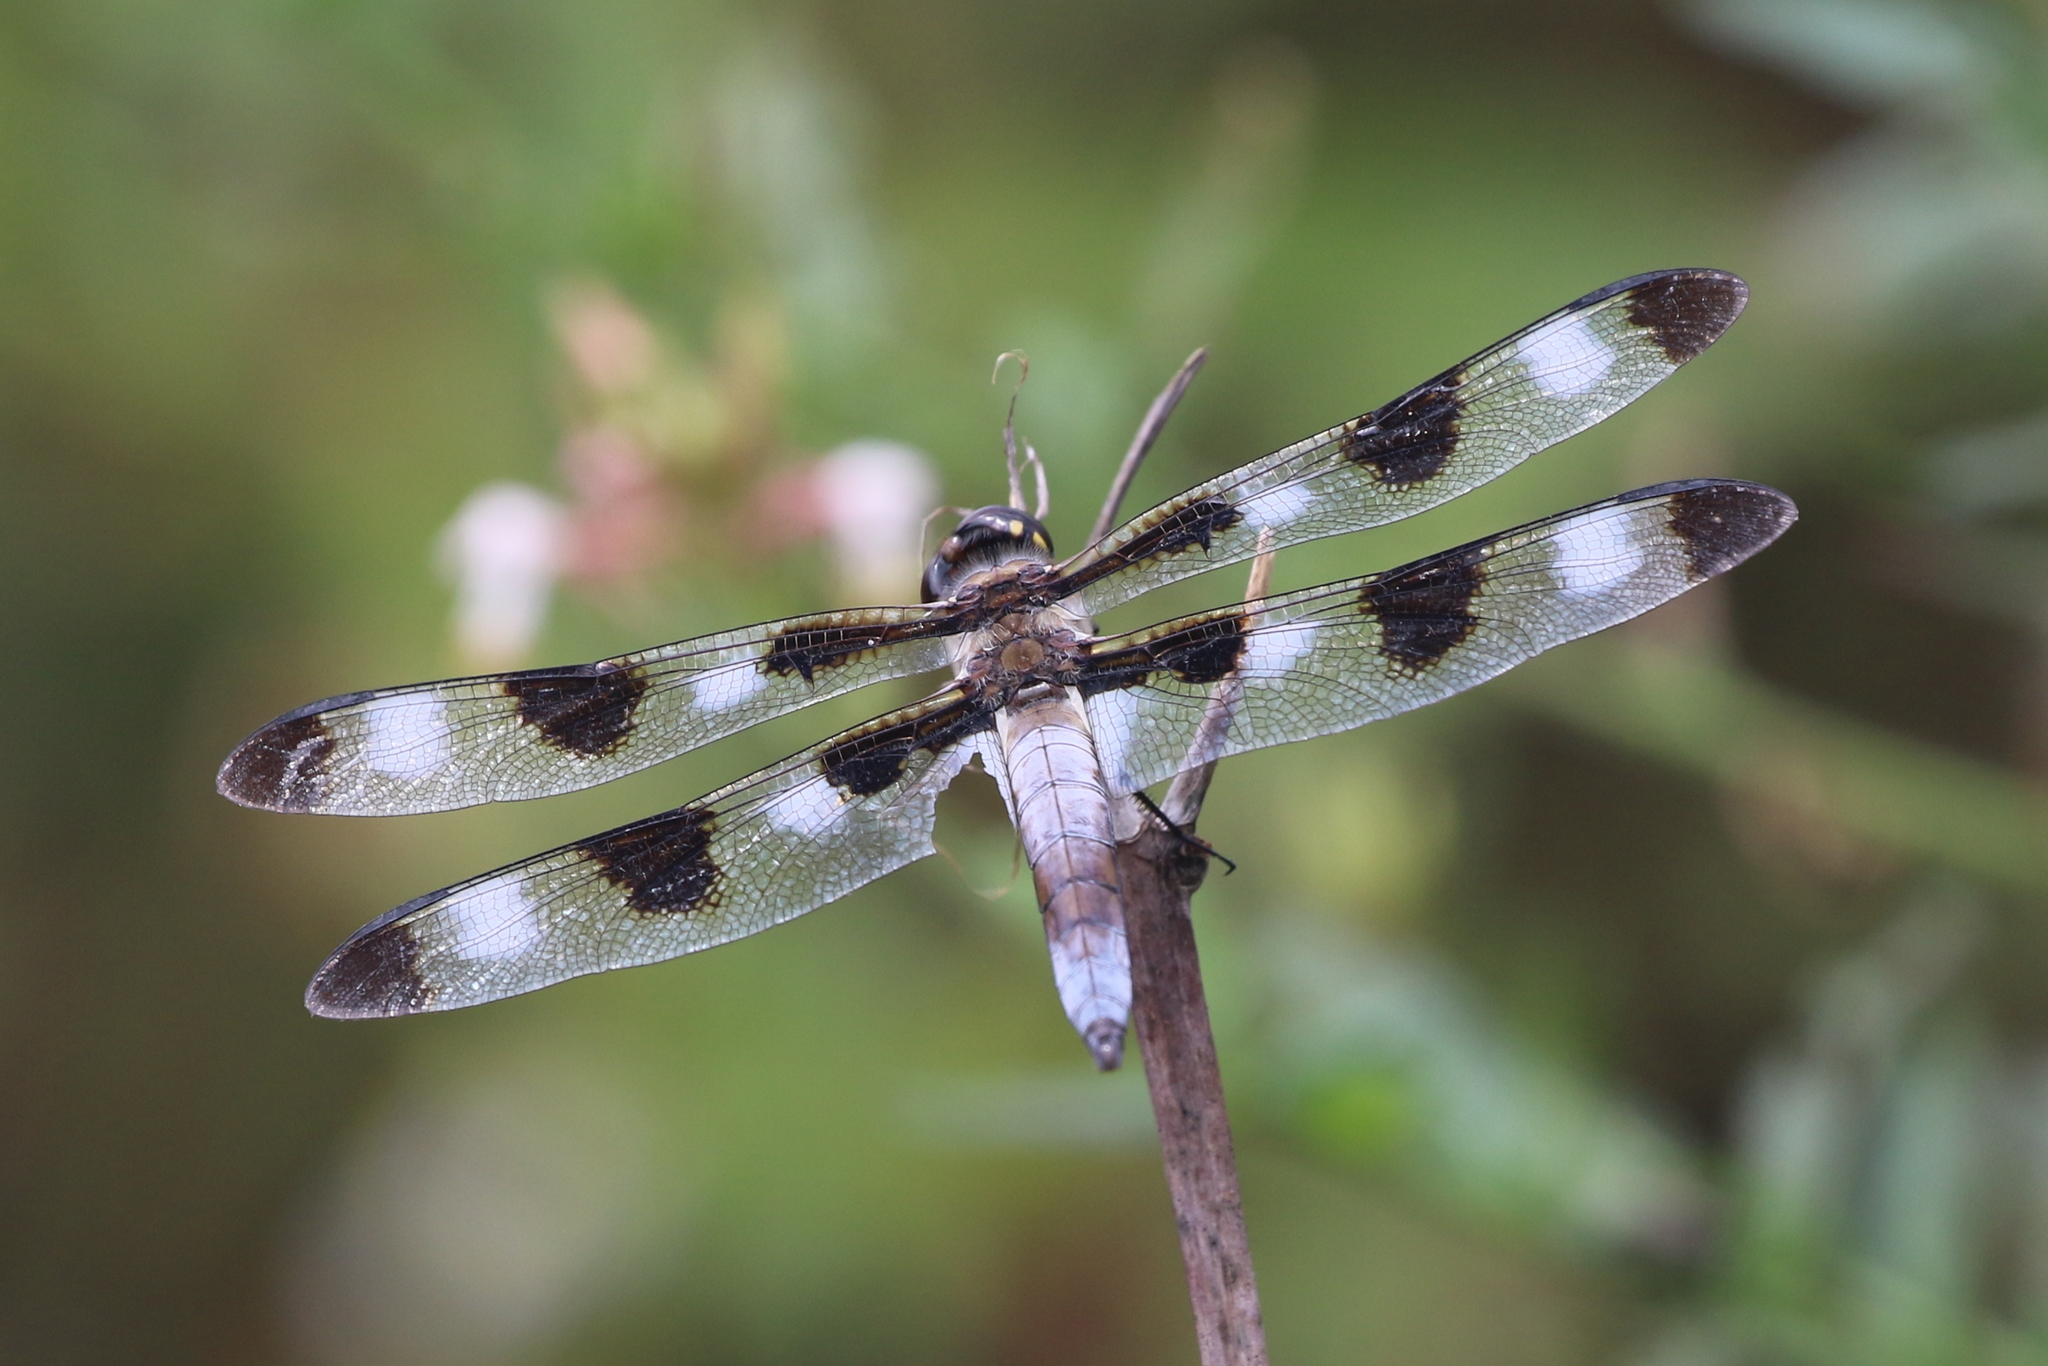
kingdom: Animalia
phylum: Arthropoda
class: Insecta
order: Odonata
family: Libellulidae
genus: Libellula
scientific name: Libellula pulchella
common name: Twelve-spotted skimmer
